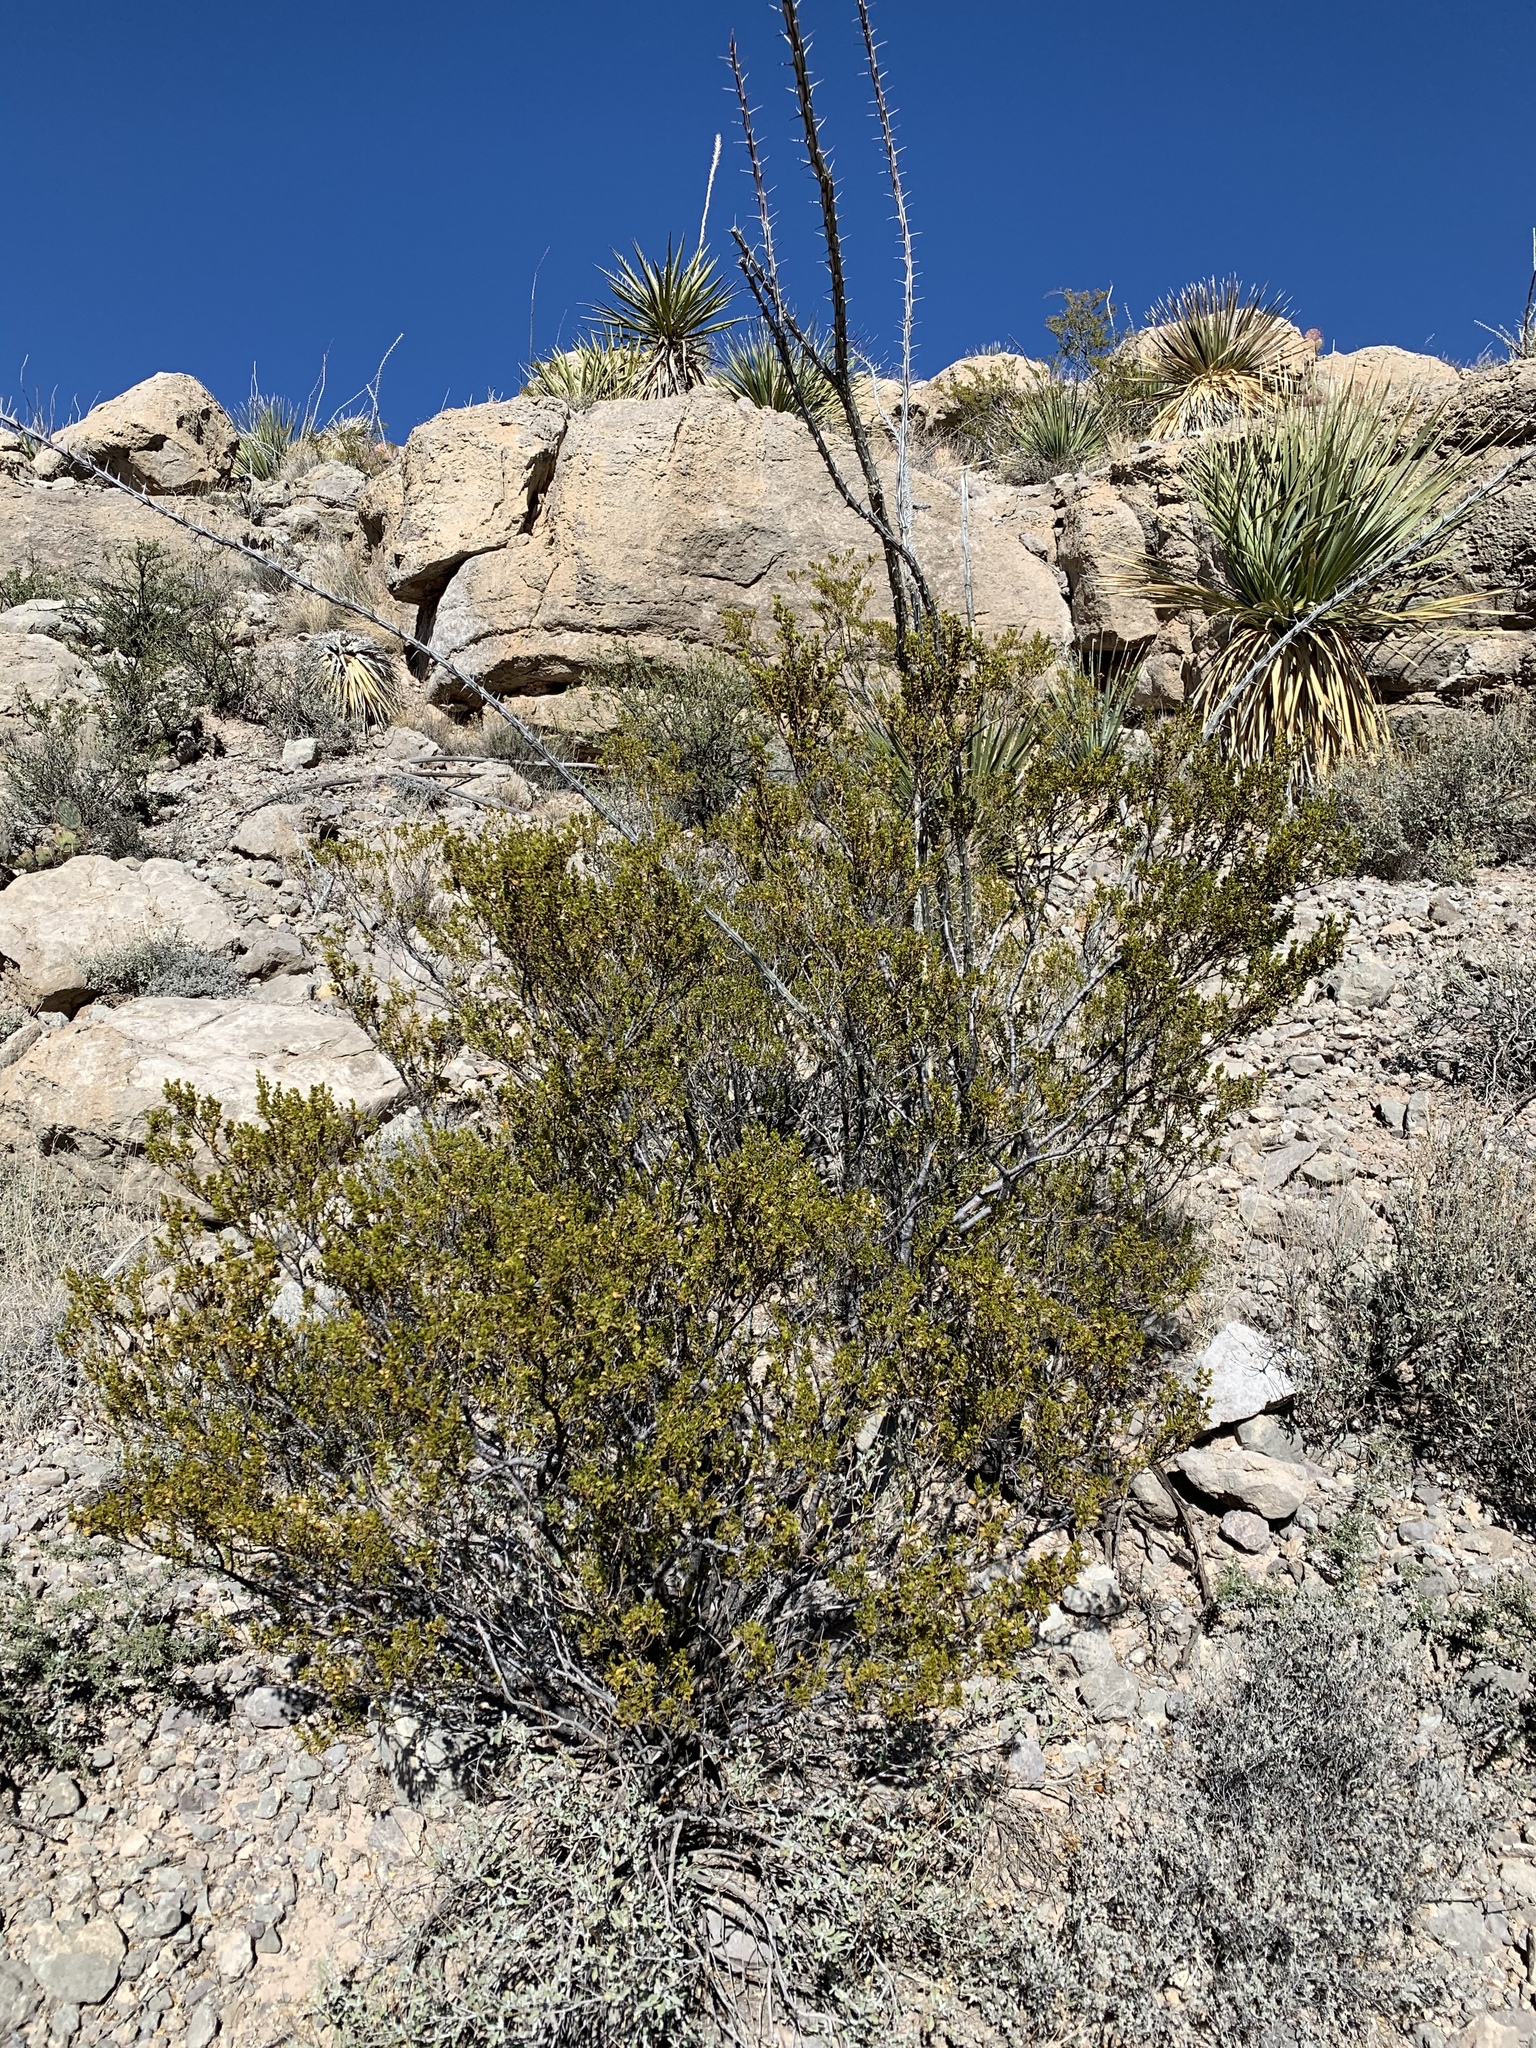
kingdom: Plantae
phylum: Tracheophyta
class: Magnoliopsida
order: Zygophyllales
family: Zygophyllaceae
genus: Larrea
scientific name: Larrea tridentata
